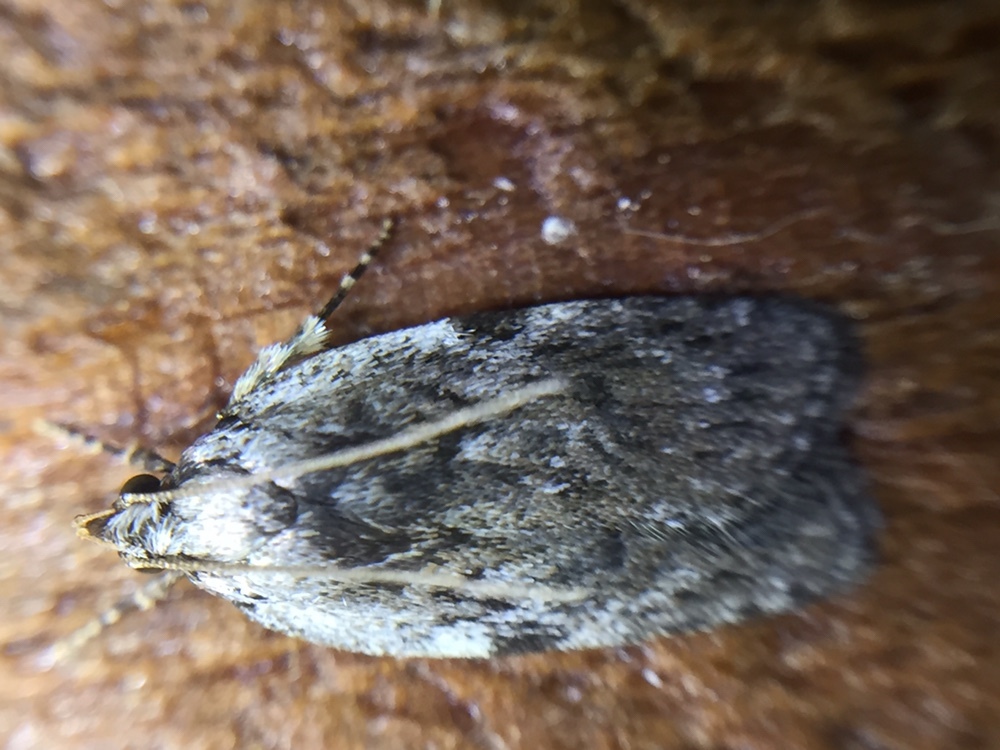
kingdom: Animalia
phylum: Arthropoda
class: Insecta
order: Lepidoptera
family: Depressariidae
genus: Phaeosaces
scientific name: Phaeosaces compsotypa
